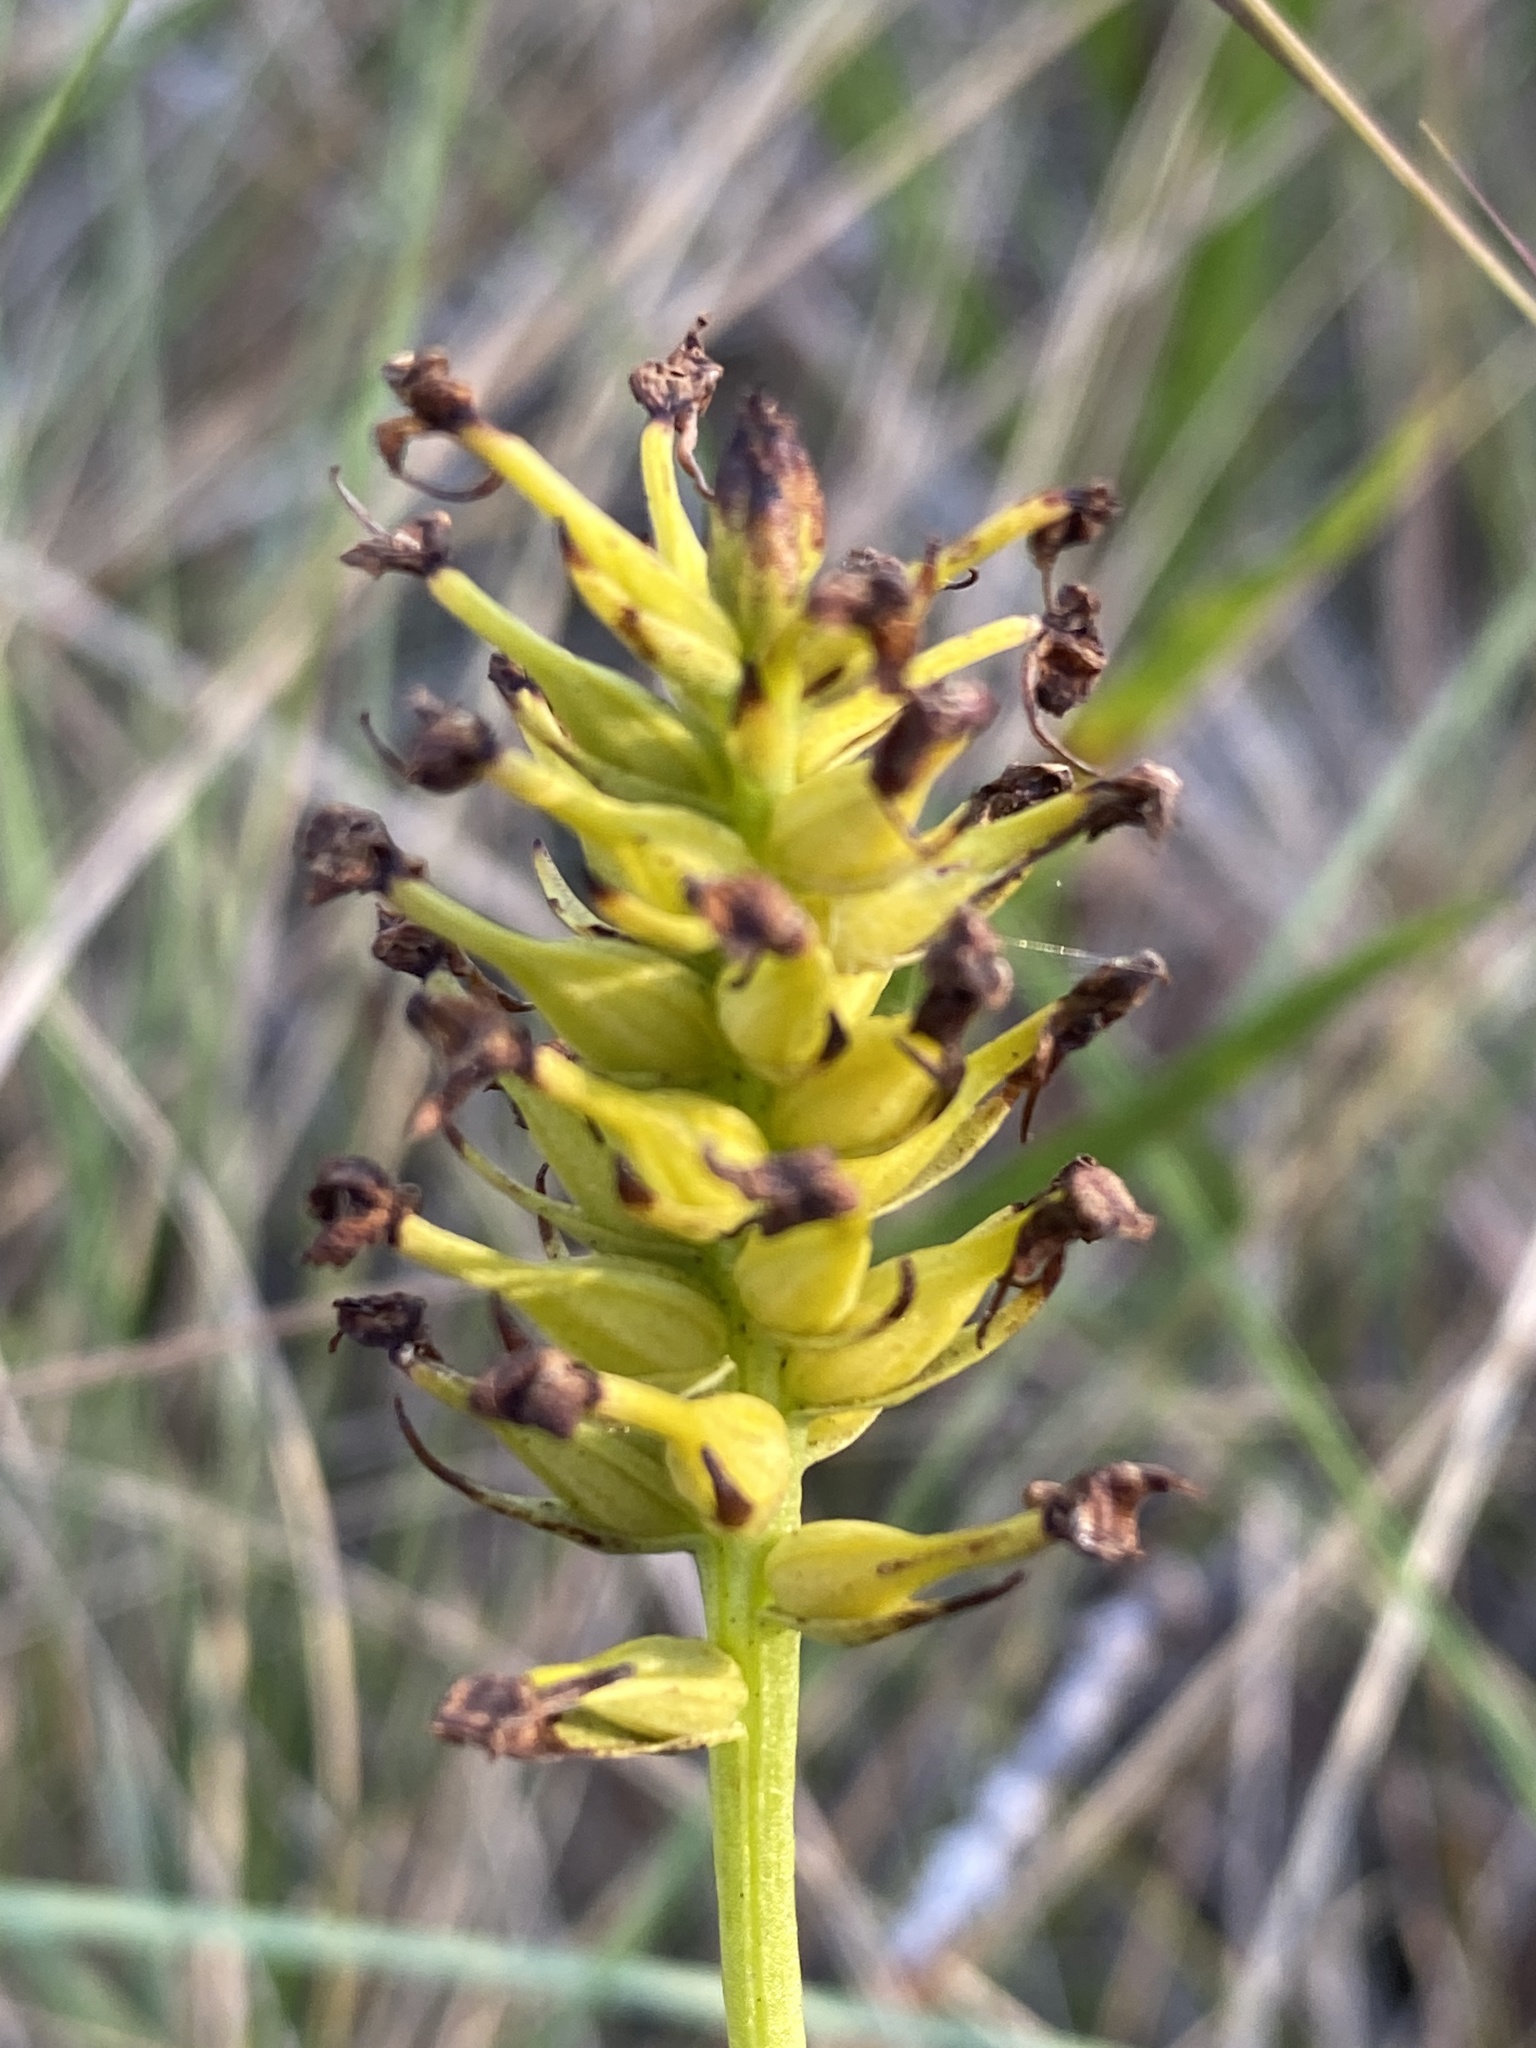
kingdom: Plantae
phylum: Tracheophyta
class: Liliopsida
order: Asparagales
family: Orchidaceae
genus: Platanthera
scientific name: Platanthera cristata
